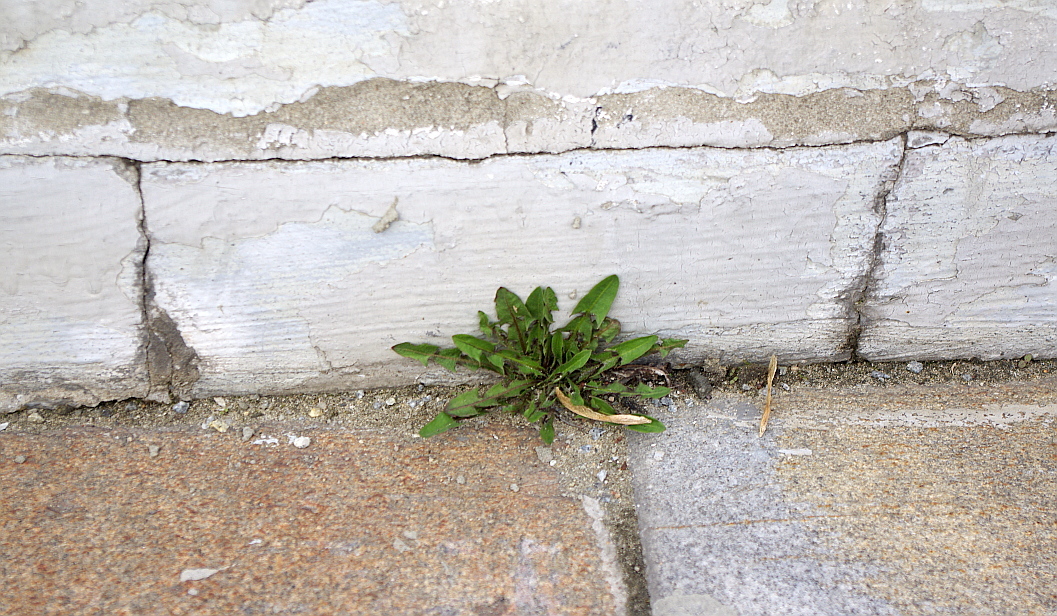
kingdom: Plantae
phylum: Tracheophyta
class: Magnoliopsida
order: Asterales
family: Asteraceae
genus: Taraxacum
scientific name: Taraxacum officinale
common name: Common dandelion
